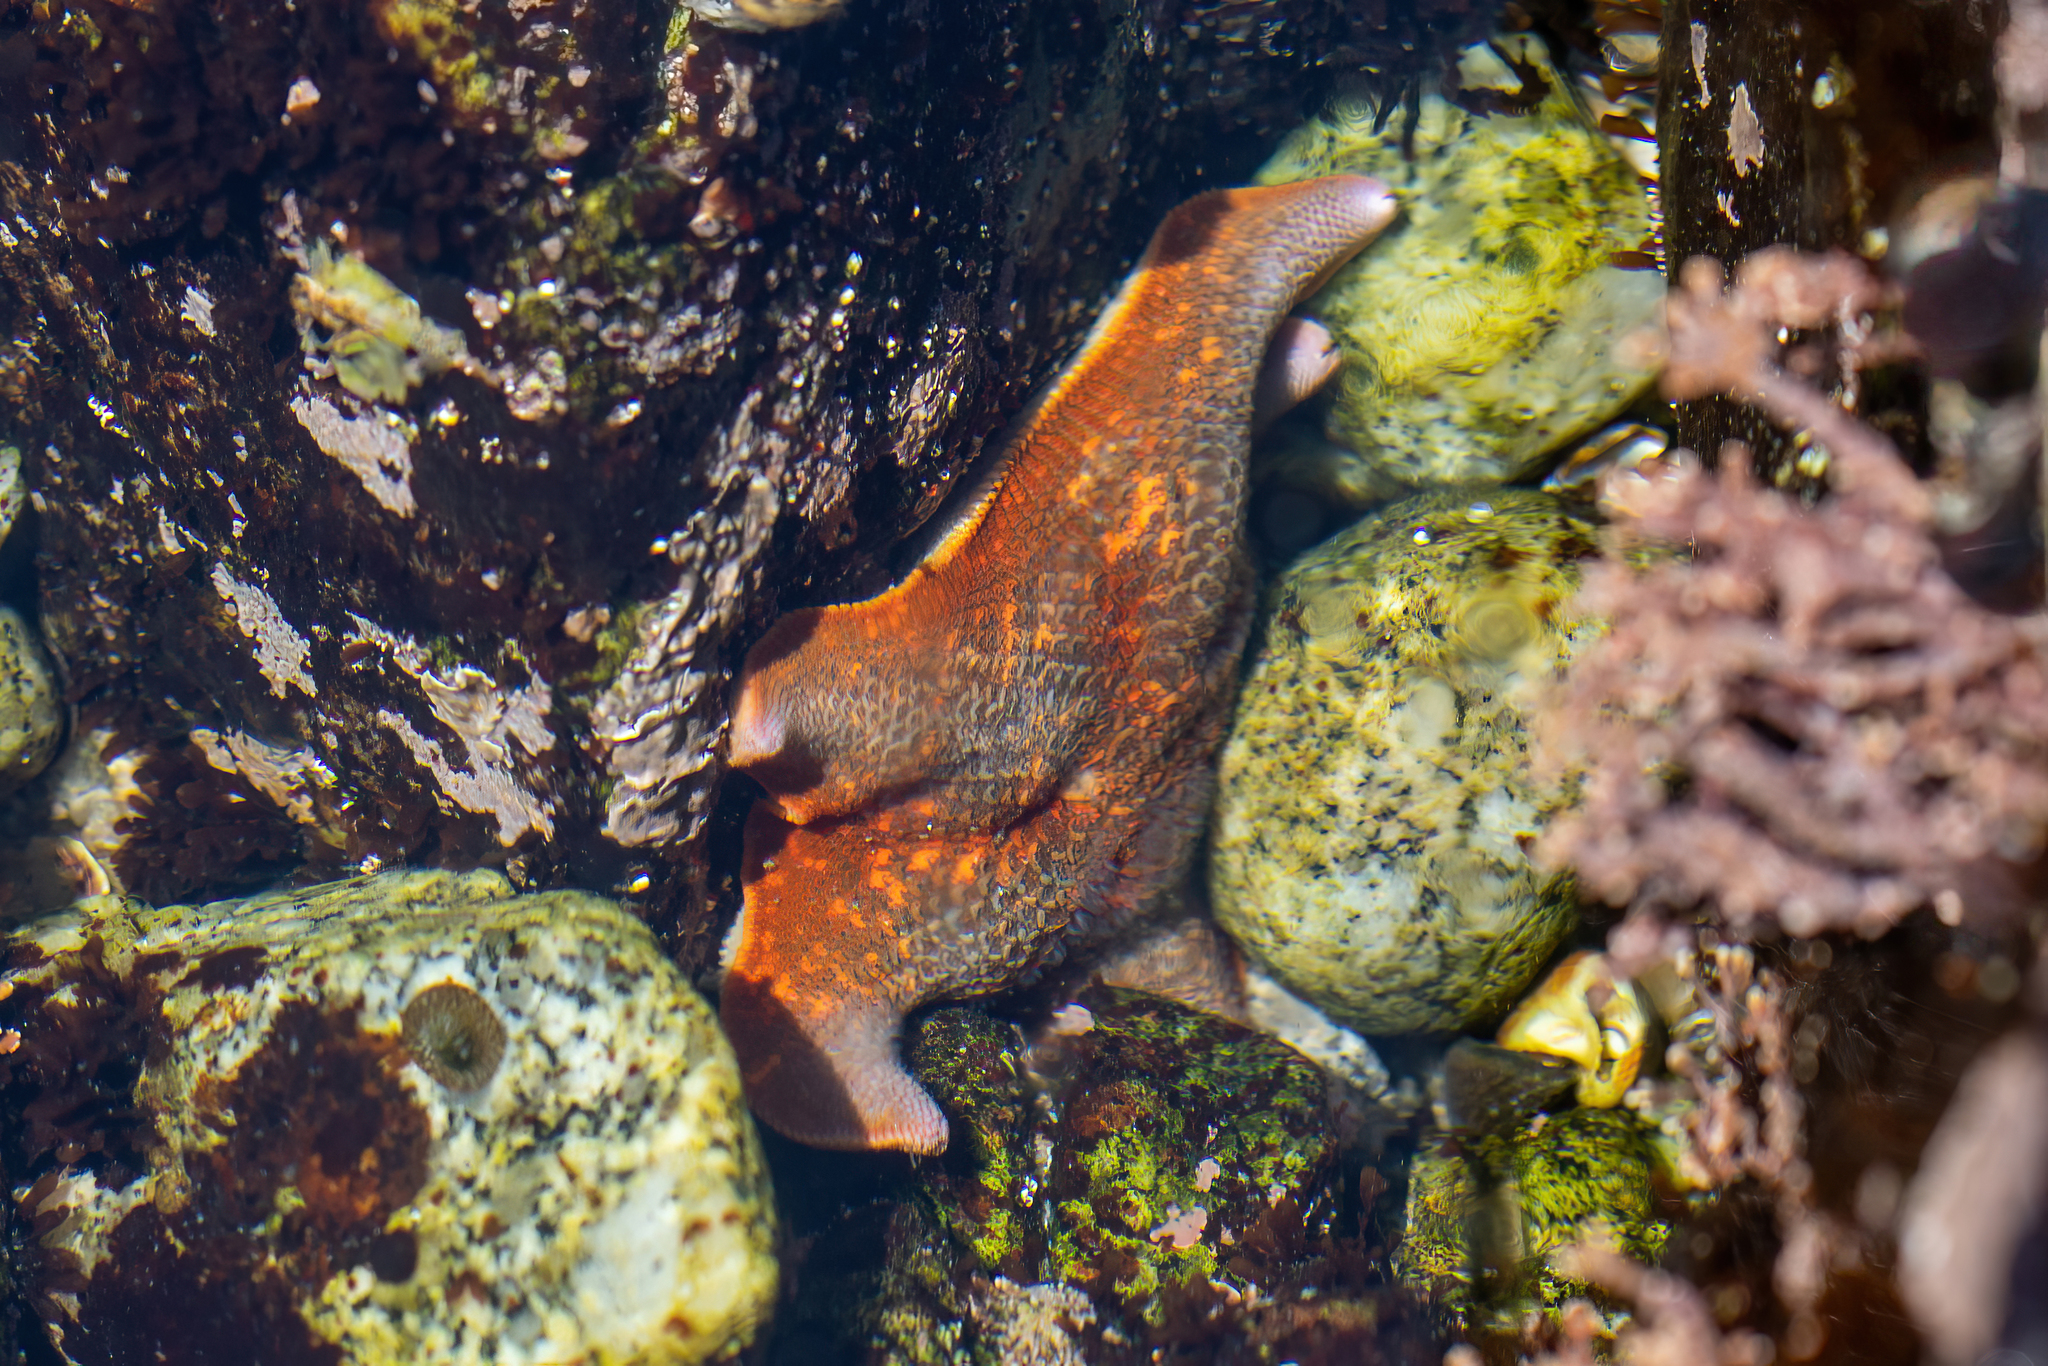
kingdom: Animalia
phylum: Echinodermata
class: Asteroidea
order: Valvatida
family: Asterinidae
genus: Patiria
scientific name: Patiria miniata
